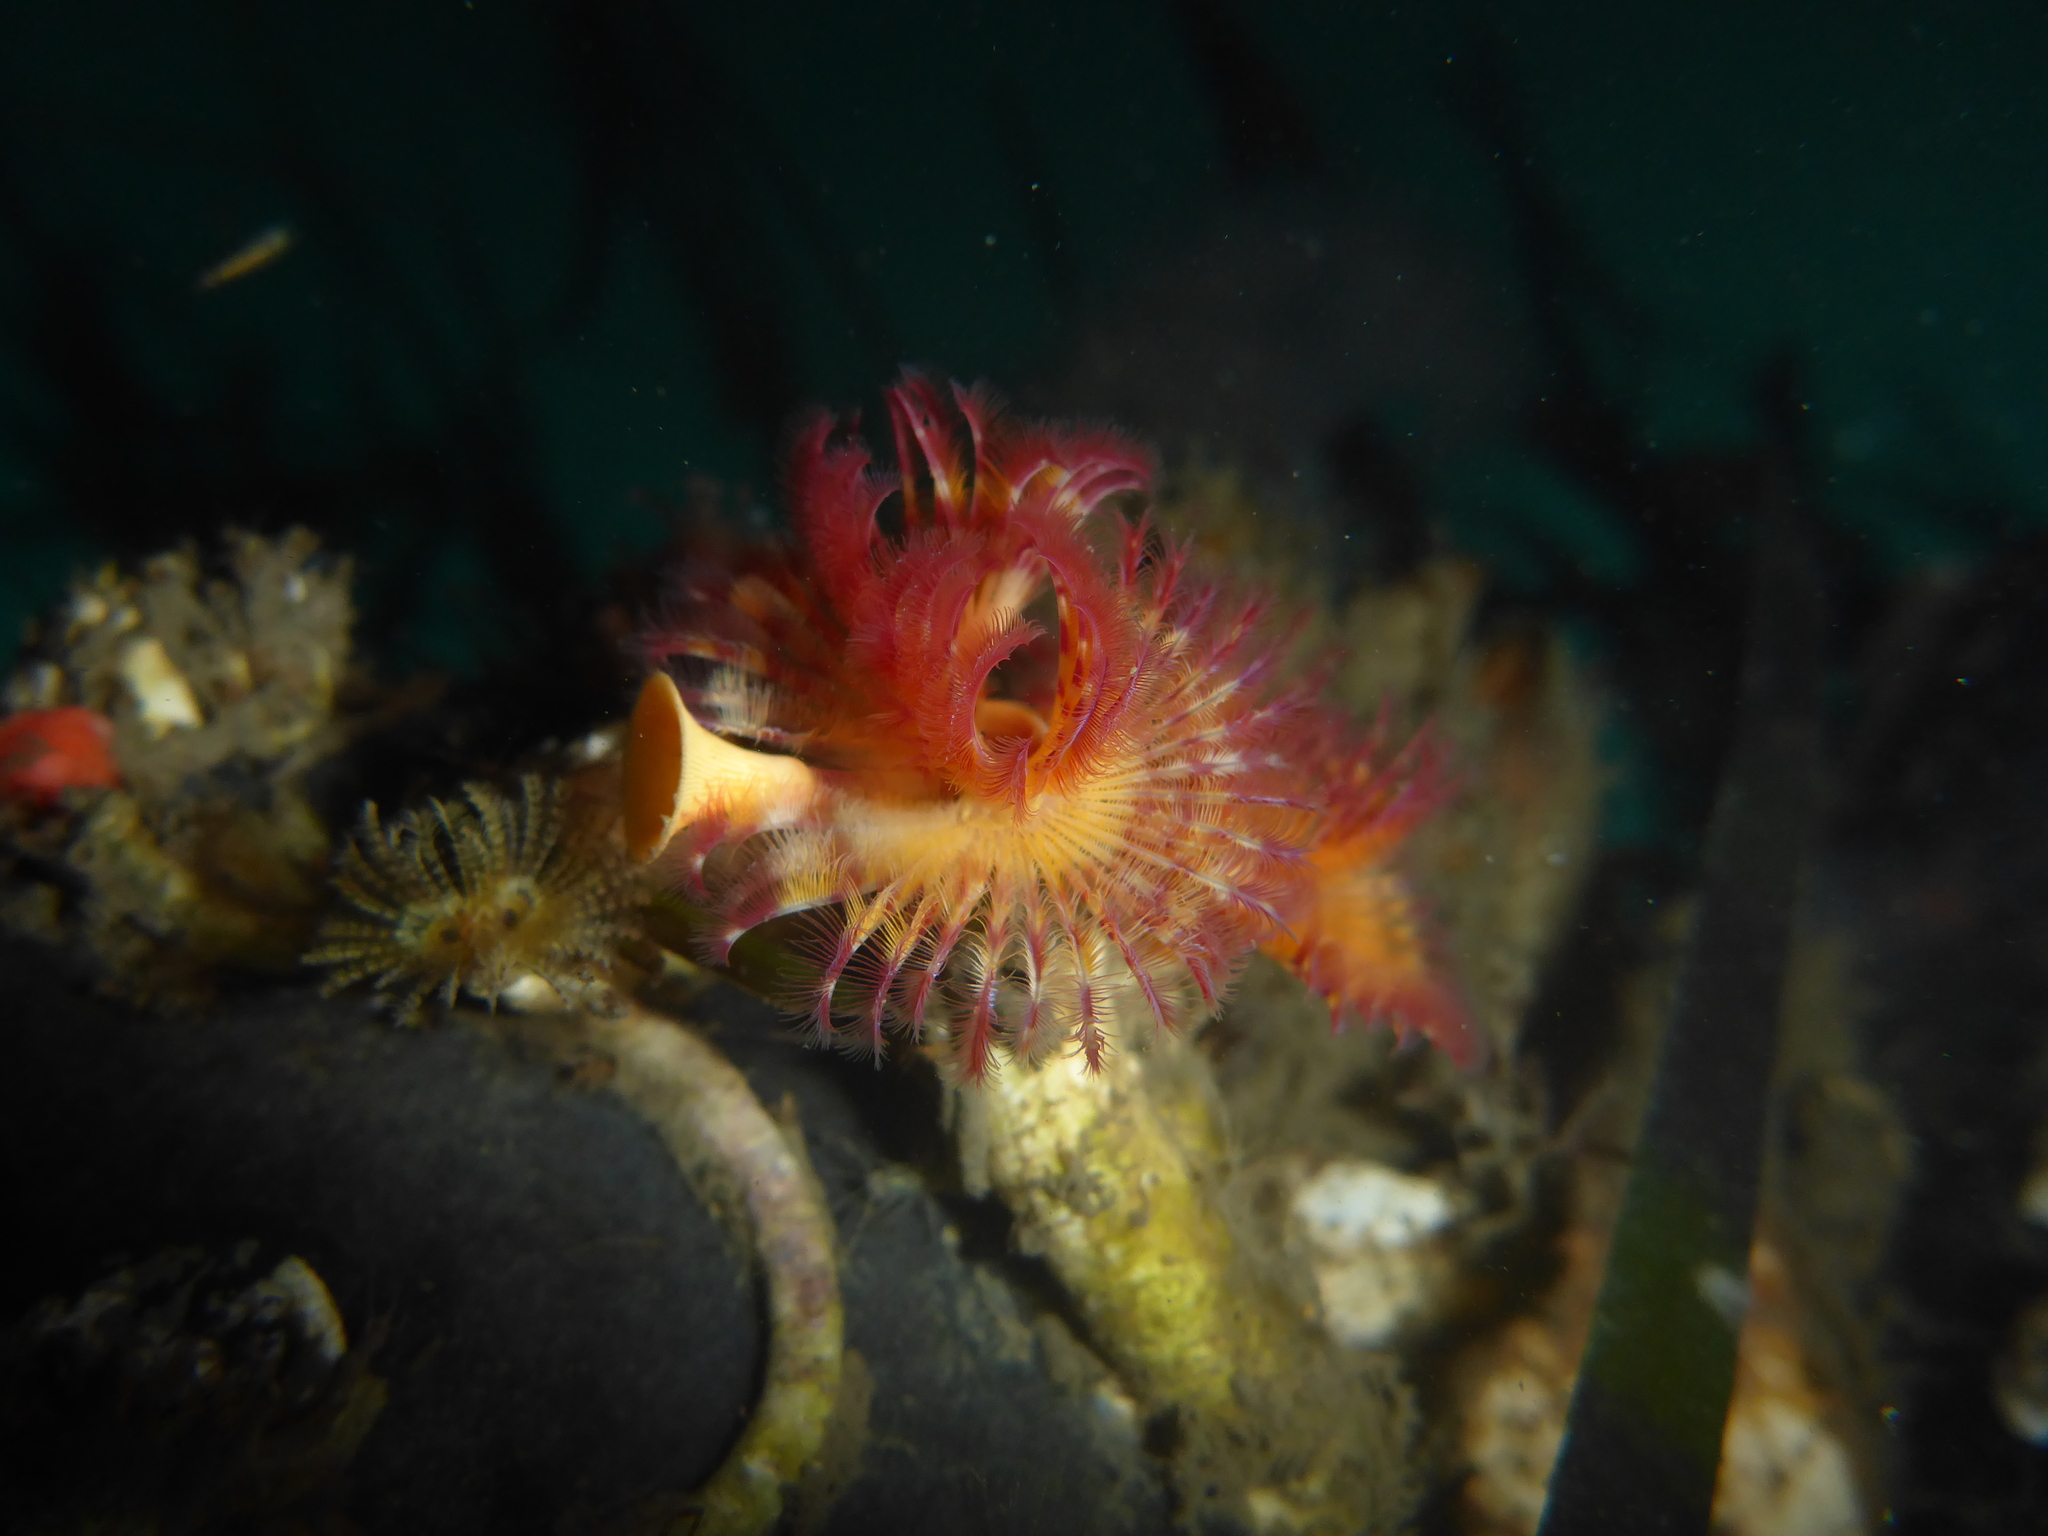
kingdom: Animalia
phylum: Annelida
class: Polychaeta
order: Sabellida
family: Serpulidae
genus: Serpula
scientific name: Serpula columbiana
